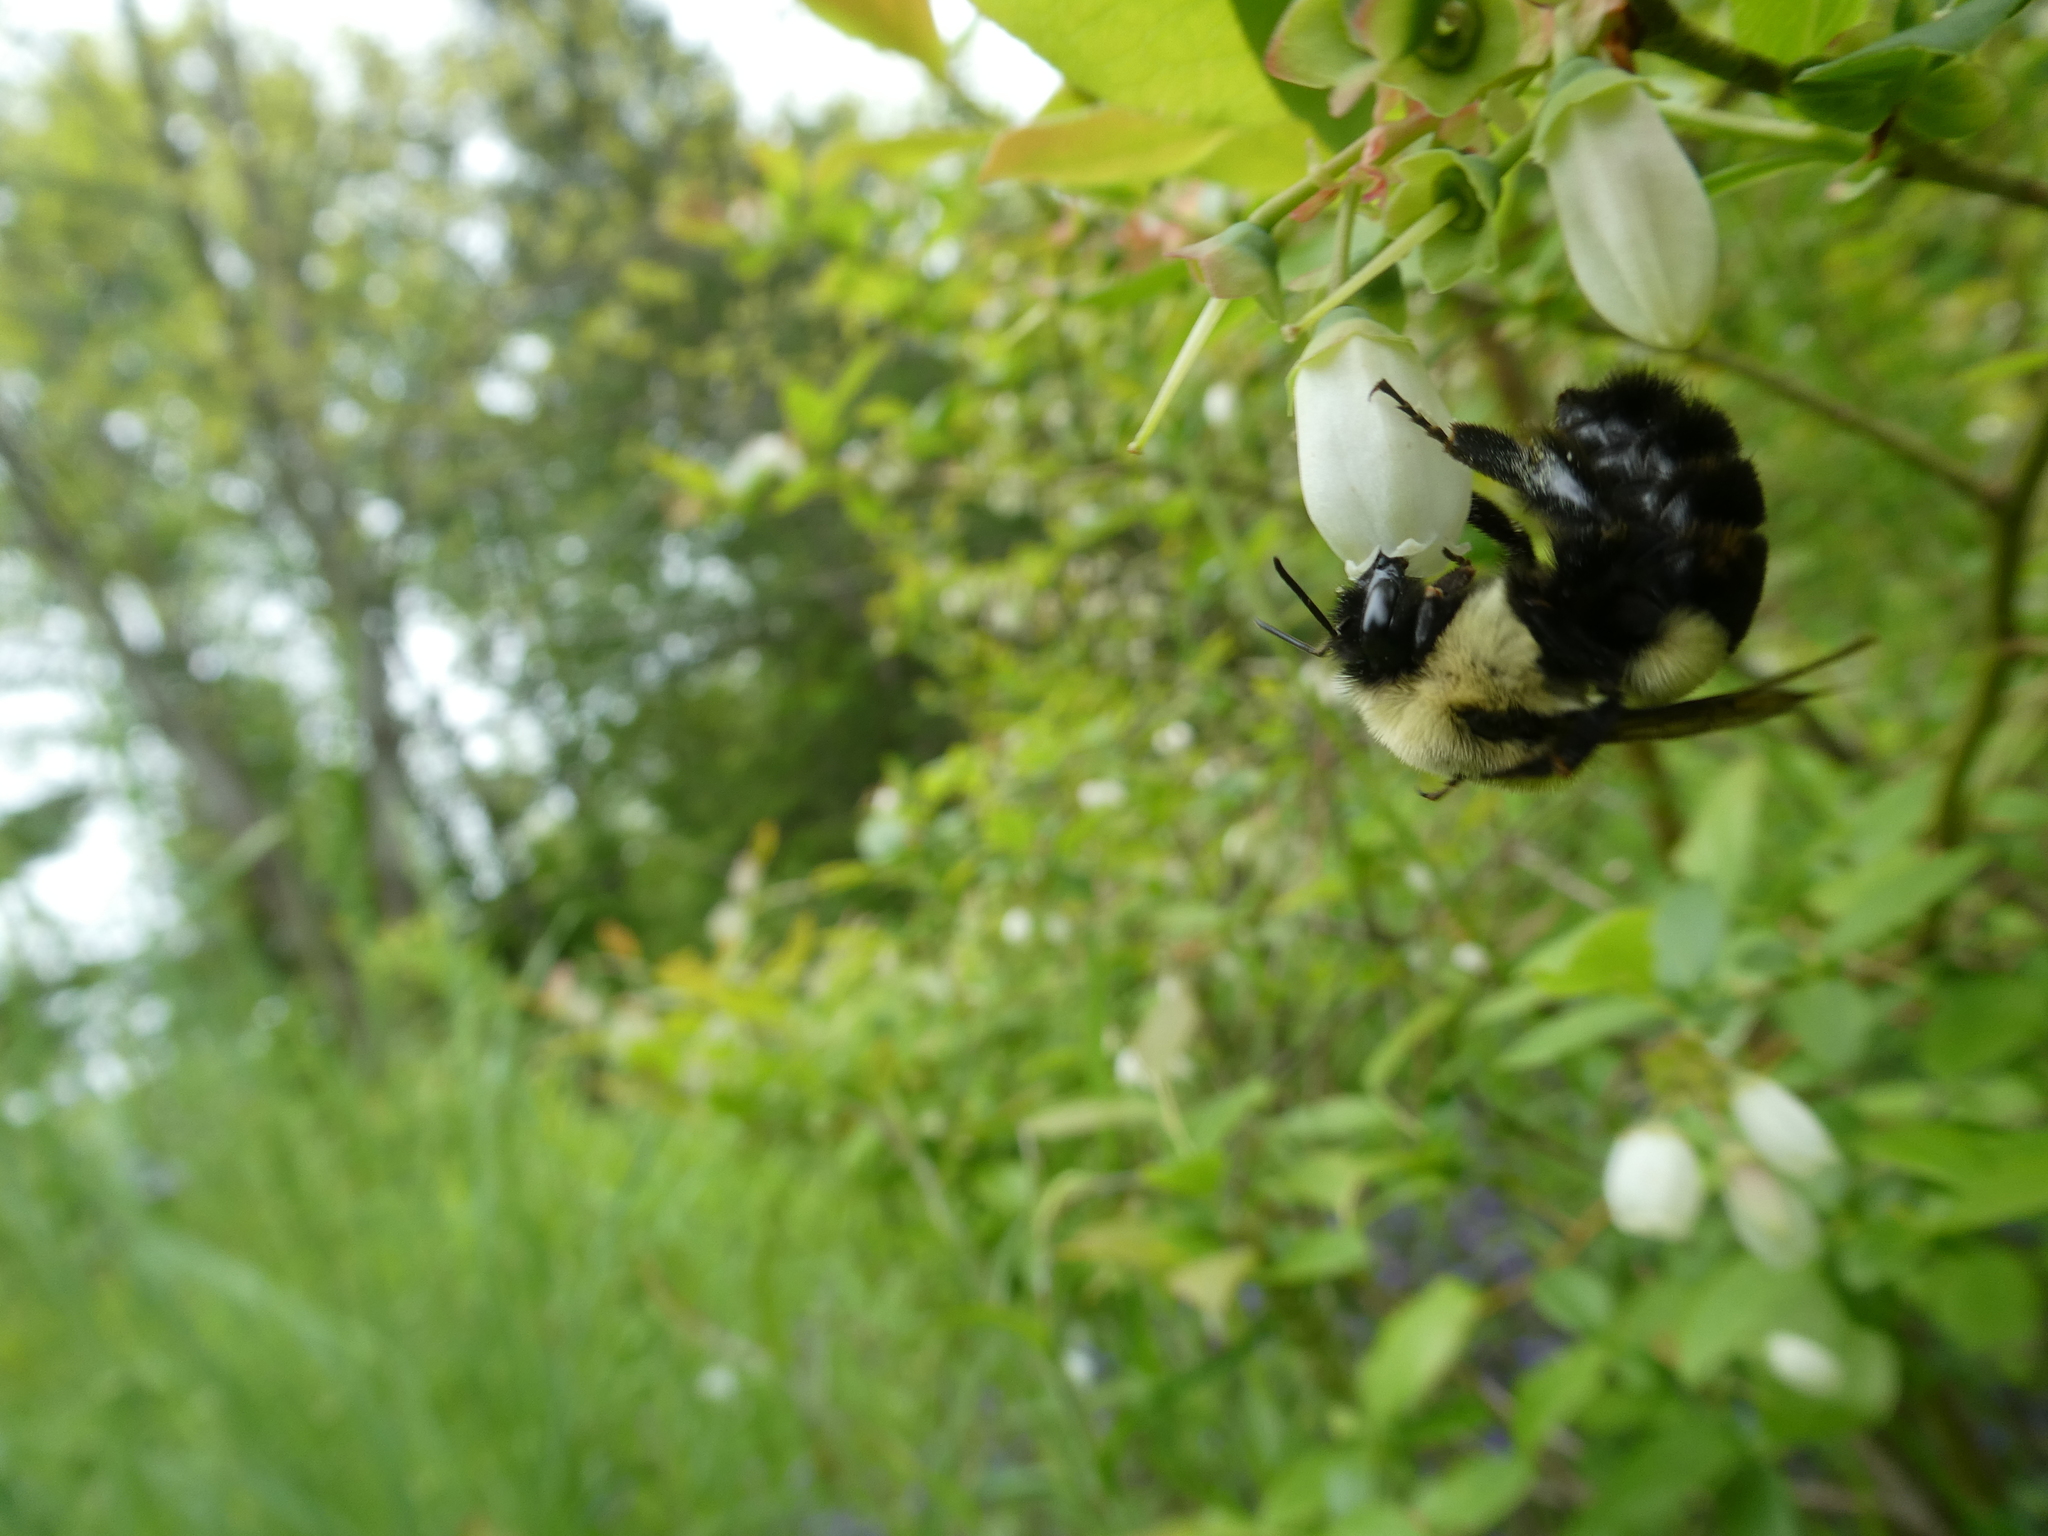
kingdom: Animalia
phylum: Arthropoda
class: Insecta
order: Hymenoptera
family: Apidae
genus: Bombus
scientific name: Bombus impatiens
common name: Common eastern bumble bee
